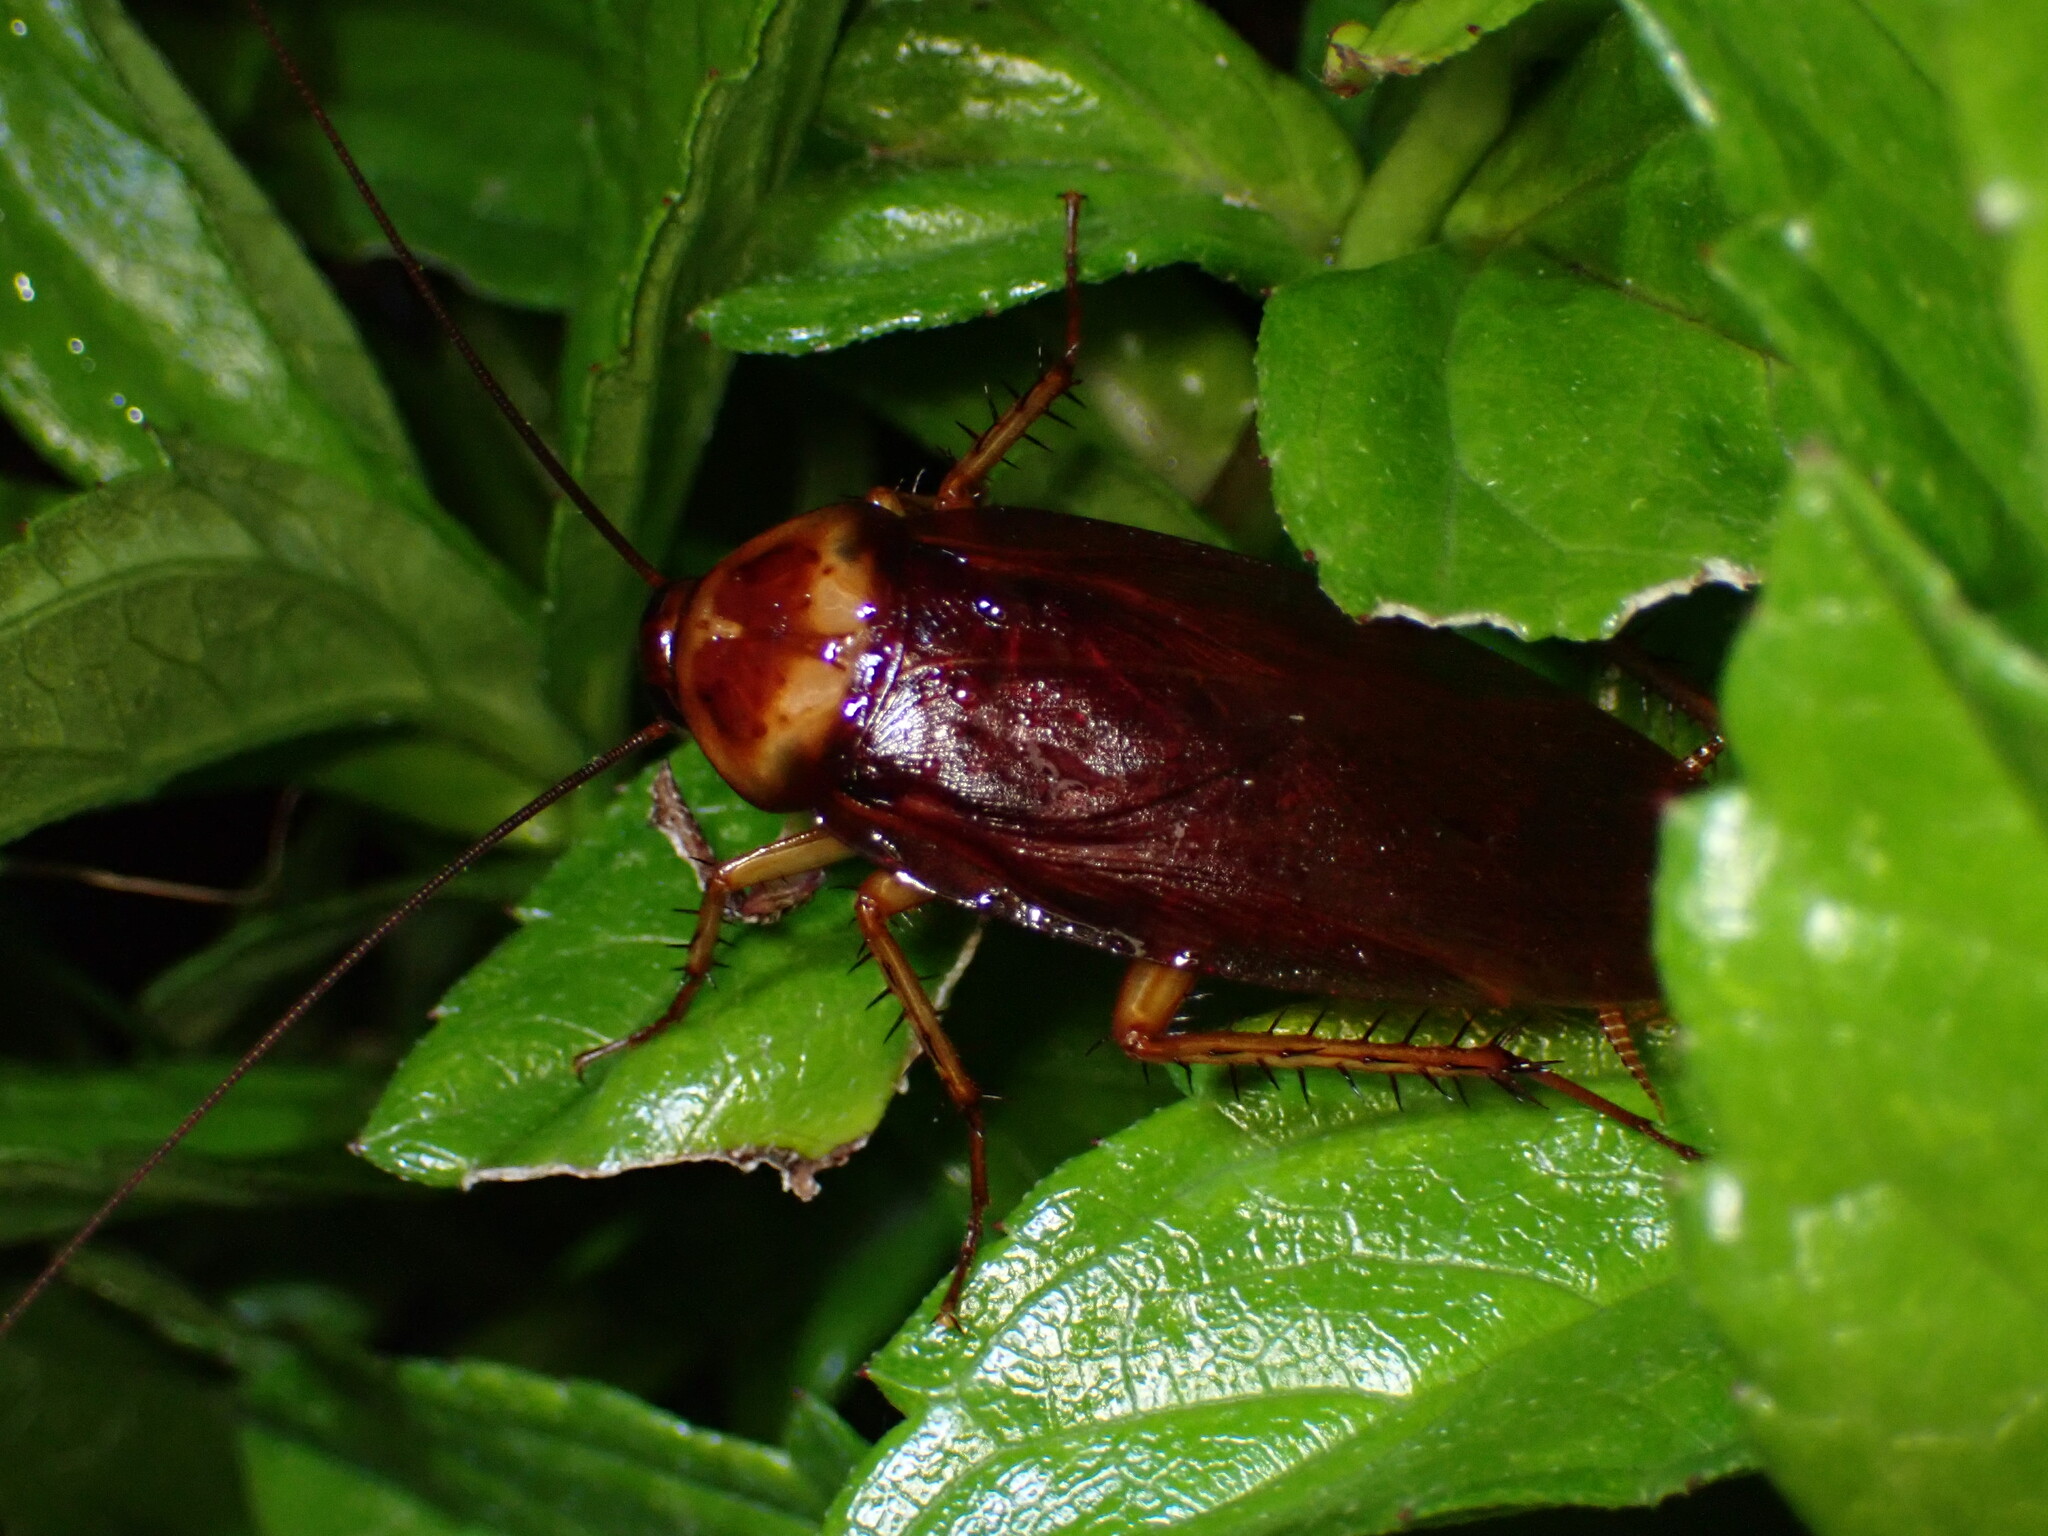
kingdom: Animalia
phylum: Arthropoda
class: Insecta
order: Blattodea
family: Blattidae
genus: Periplaneta
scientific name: Periplaneta americana
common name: American cockroach
